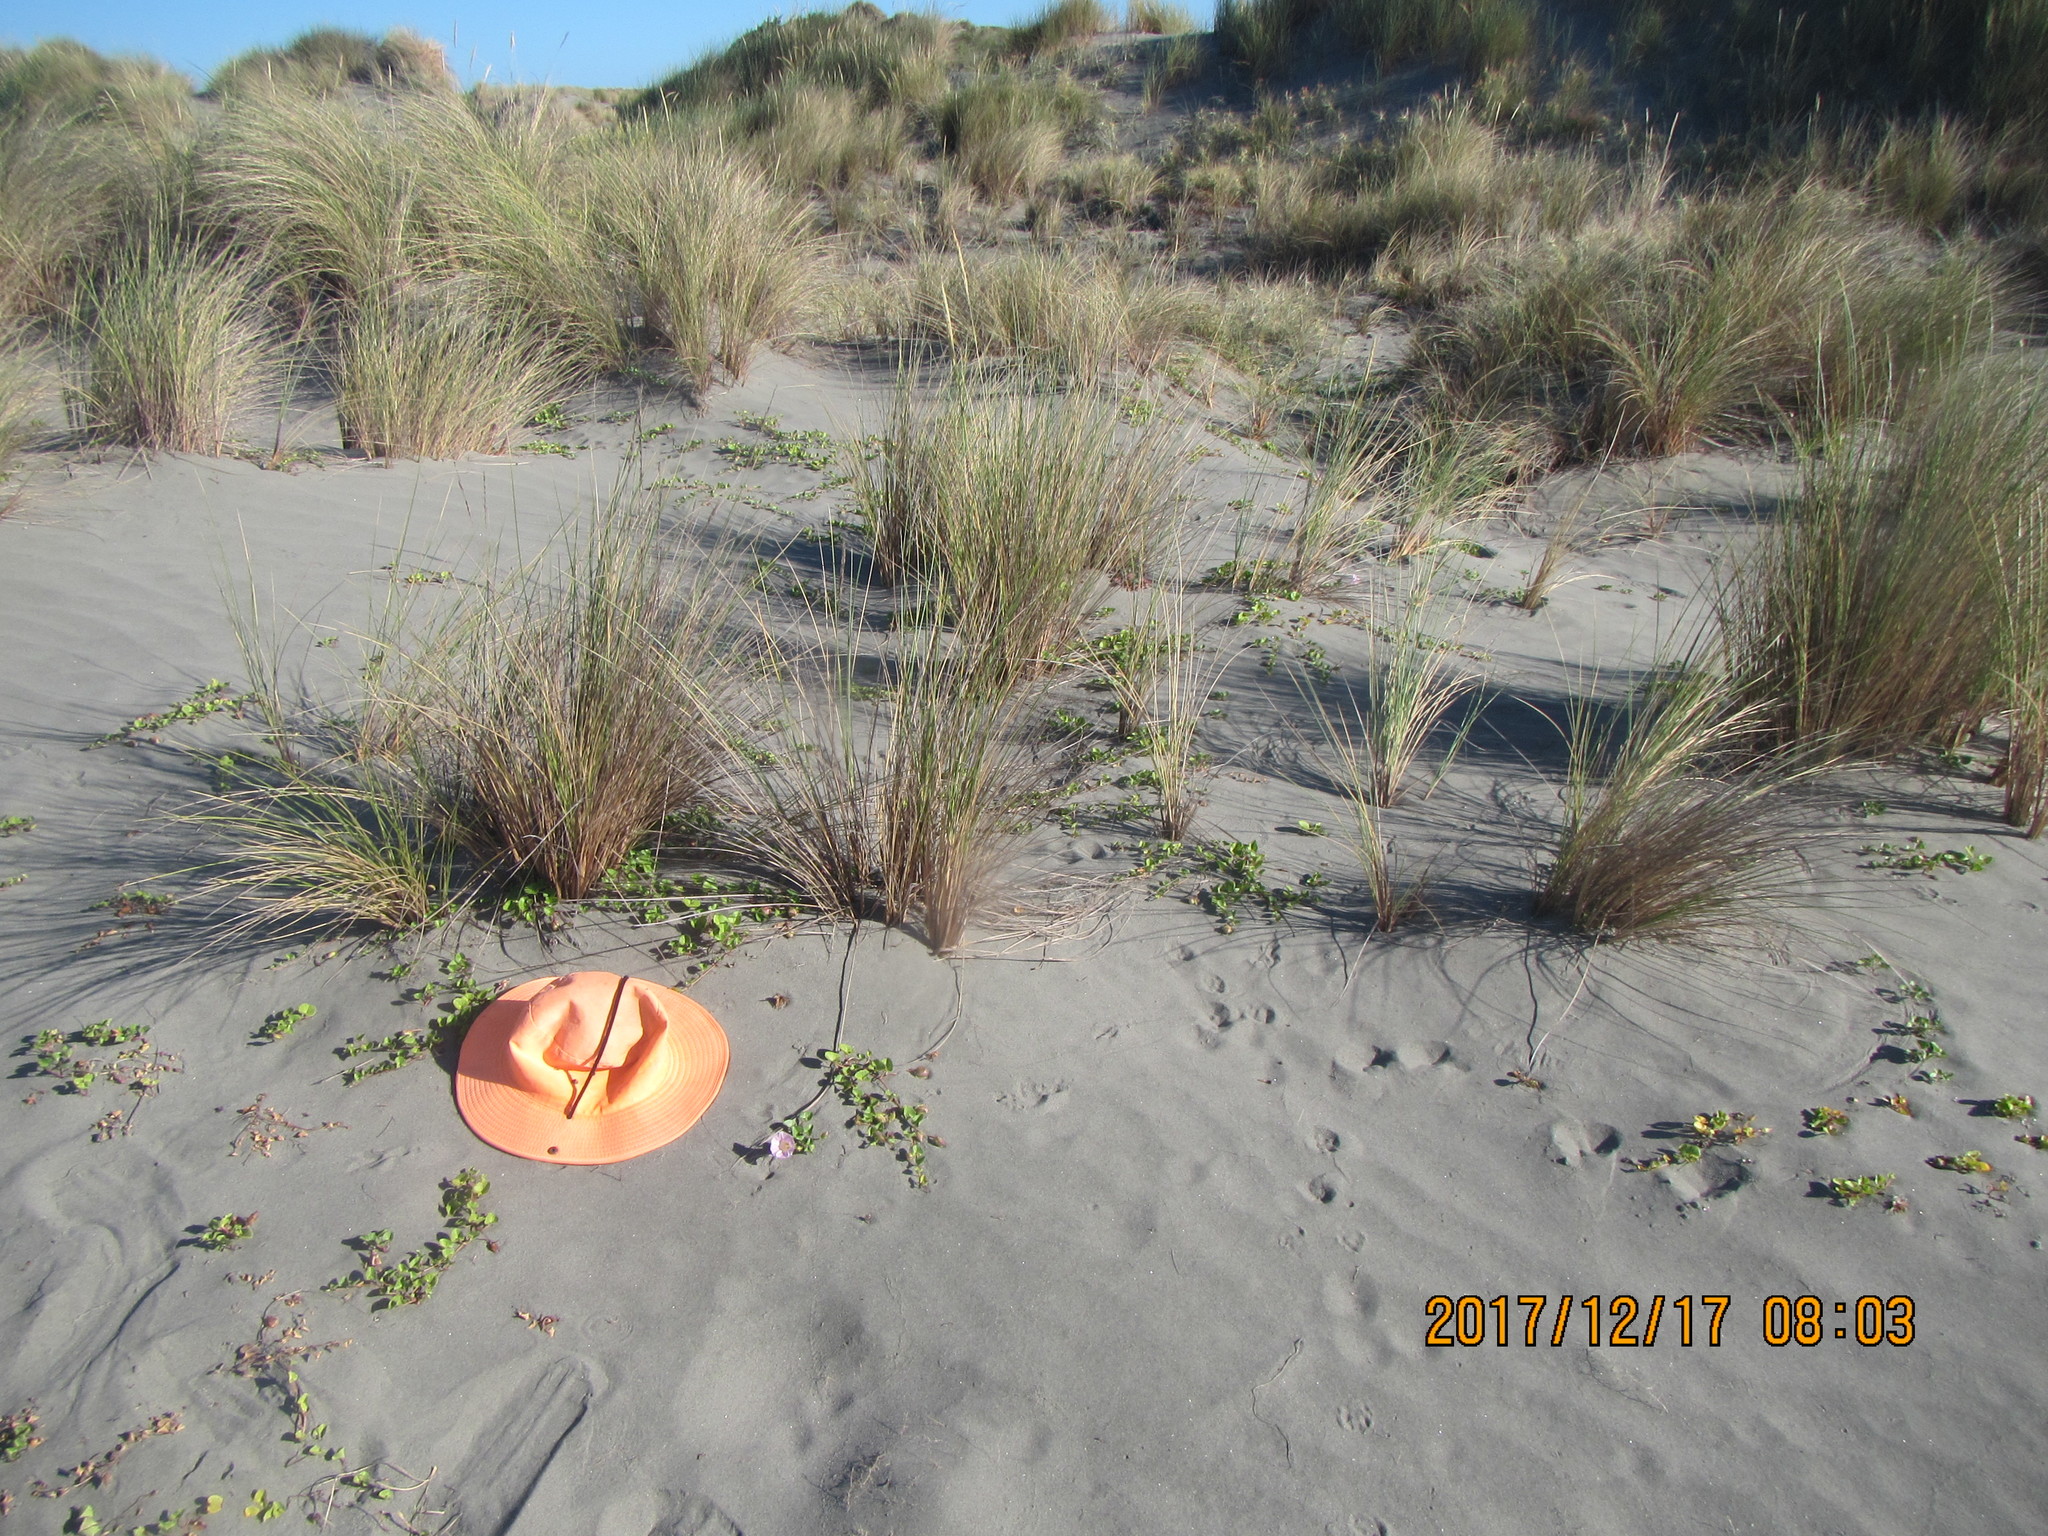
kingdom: Plantae
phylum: Tracheophyta
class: Magnoliopsida
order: Solanales
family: Convolvulaceae
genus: Calystegia
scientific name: Calystegia soldanella
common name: Sea bindweed
